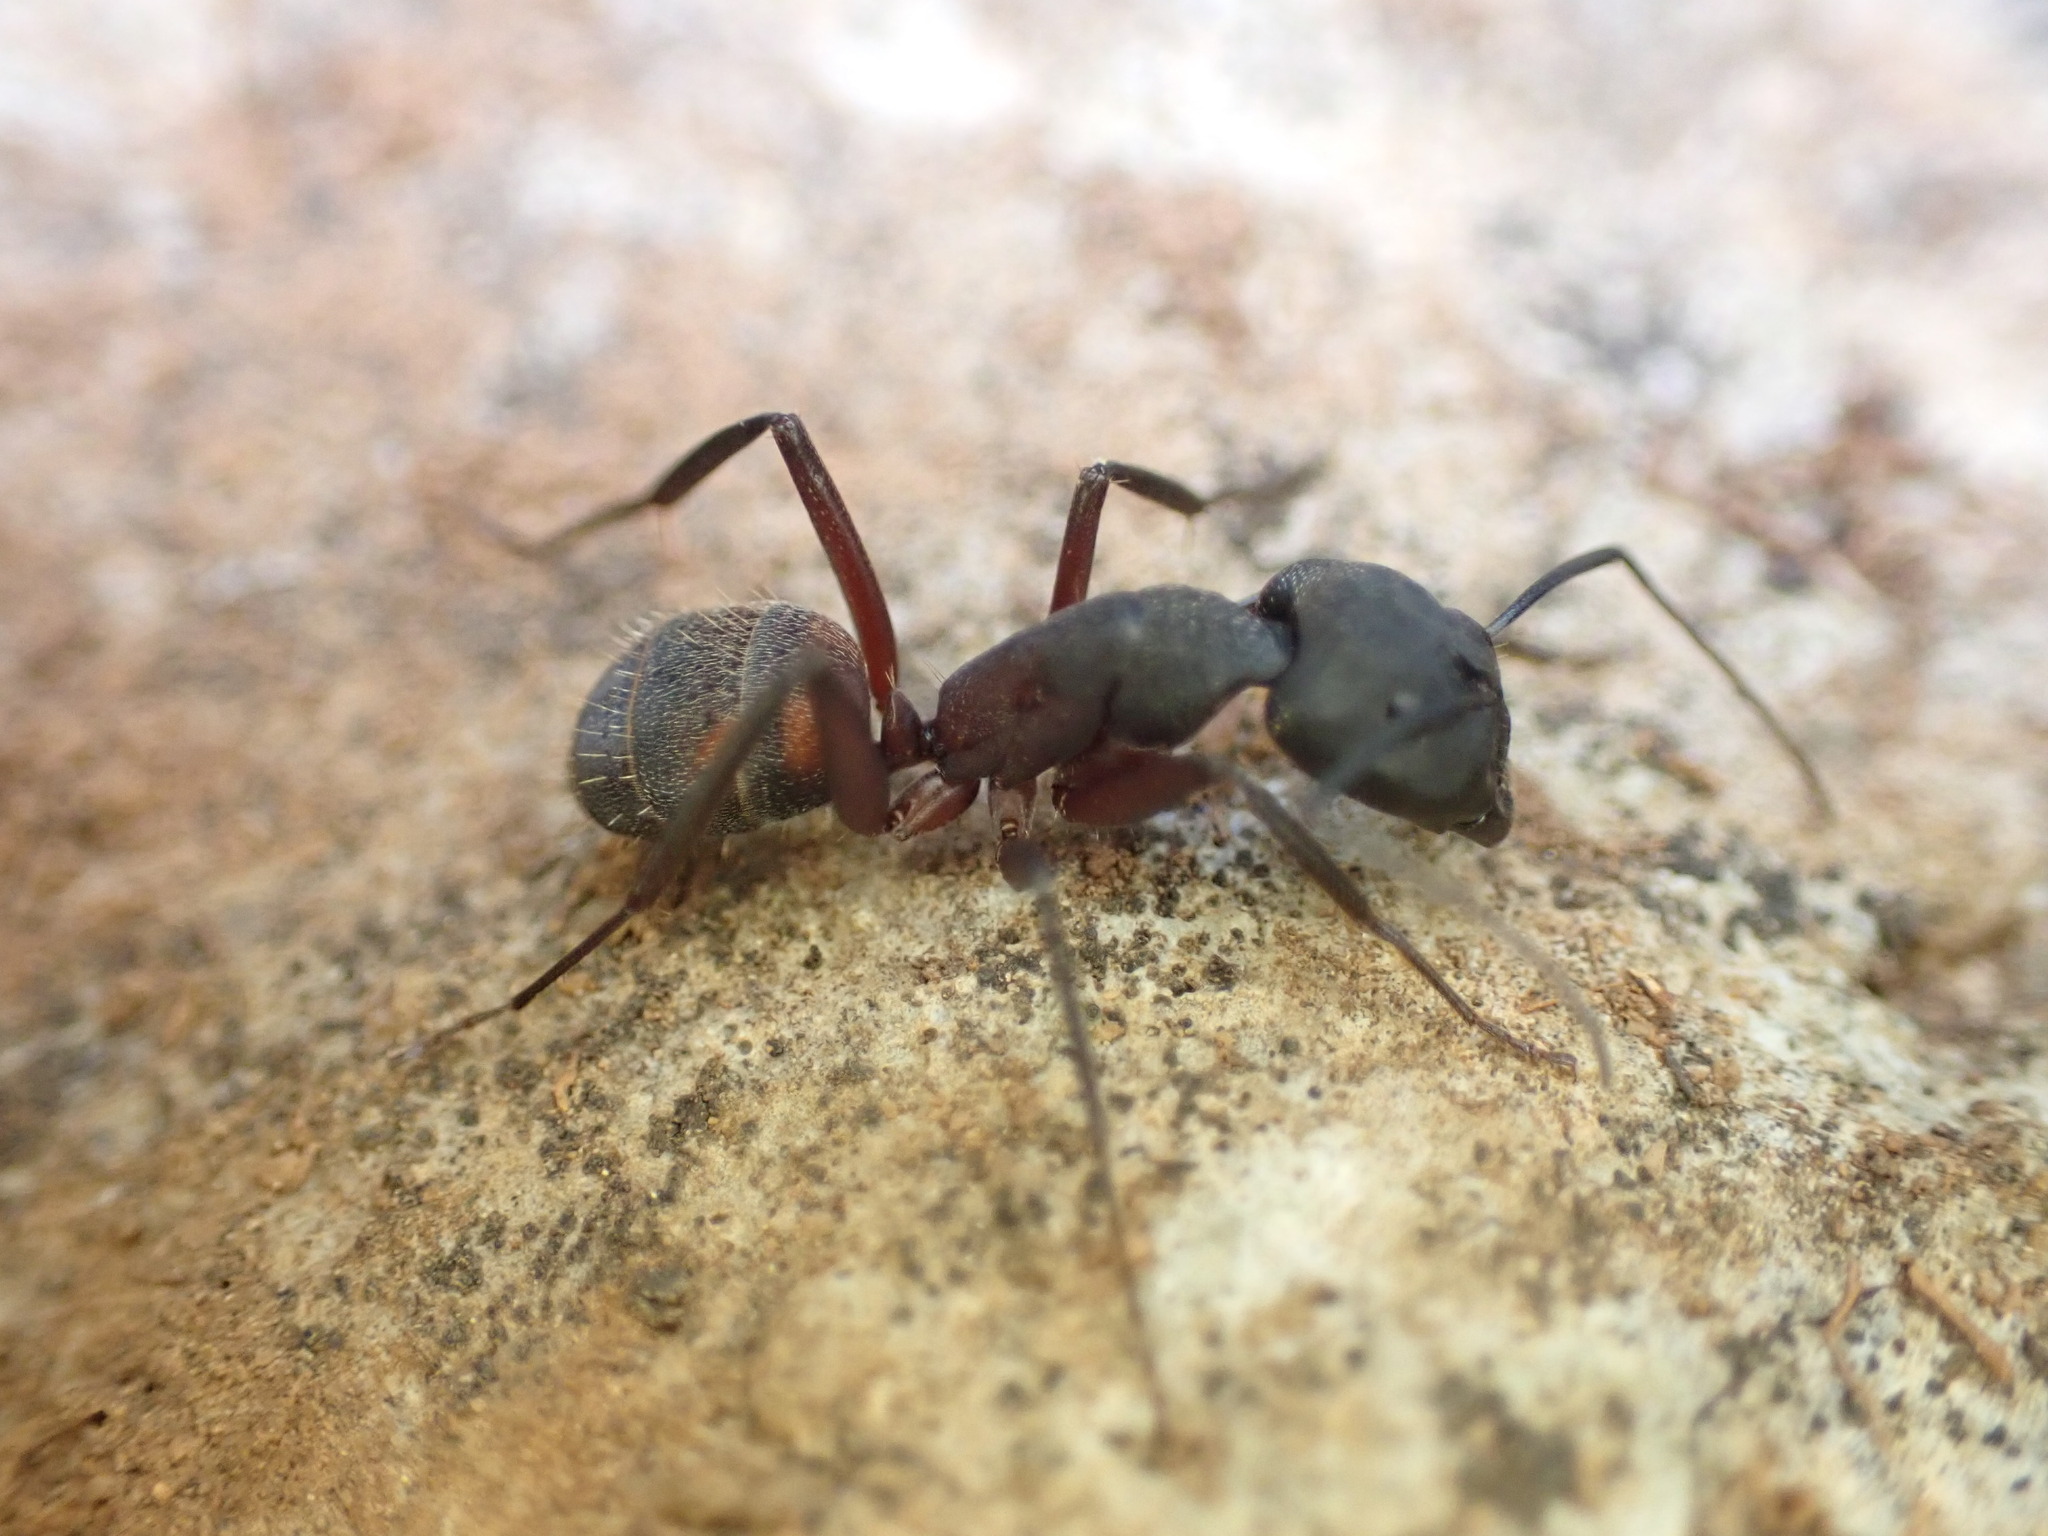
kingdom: Animalia
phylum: Arthropoda
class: Insecta
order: Hymenoptera
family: Formicidae
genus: Camponotus
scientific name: Camponotus cruentatus
